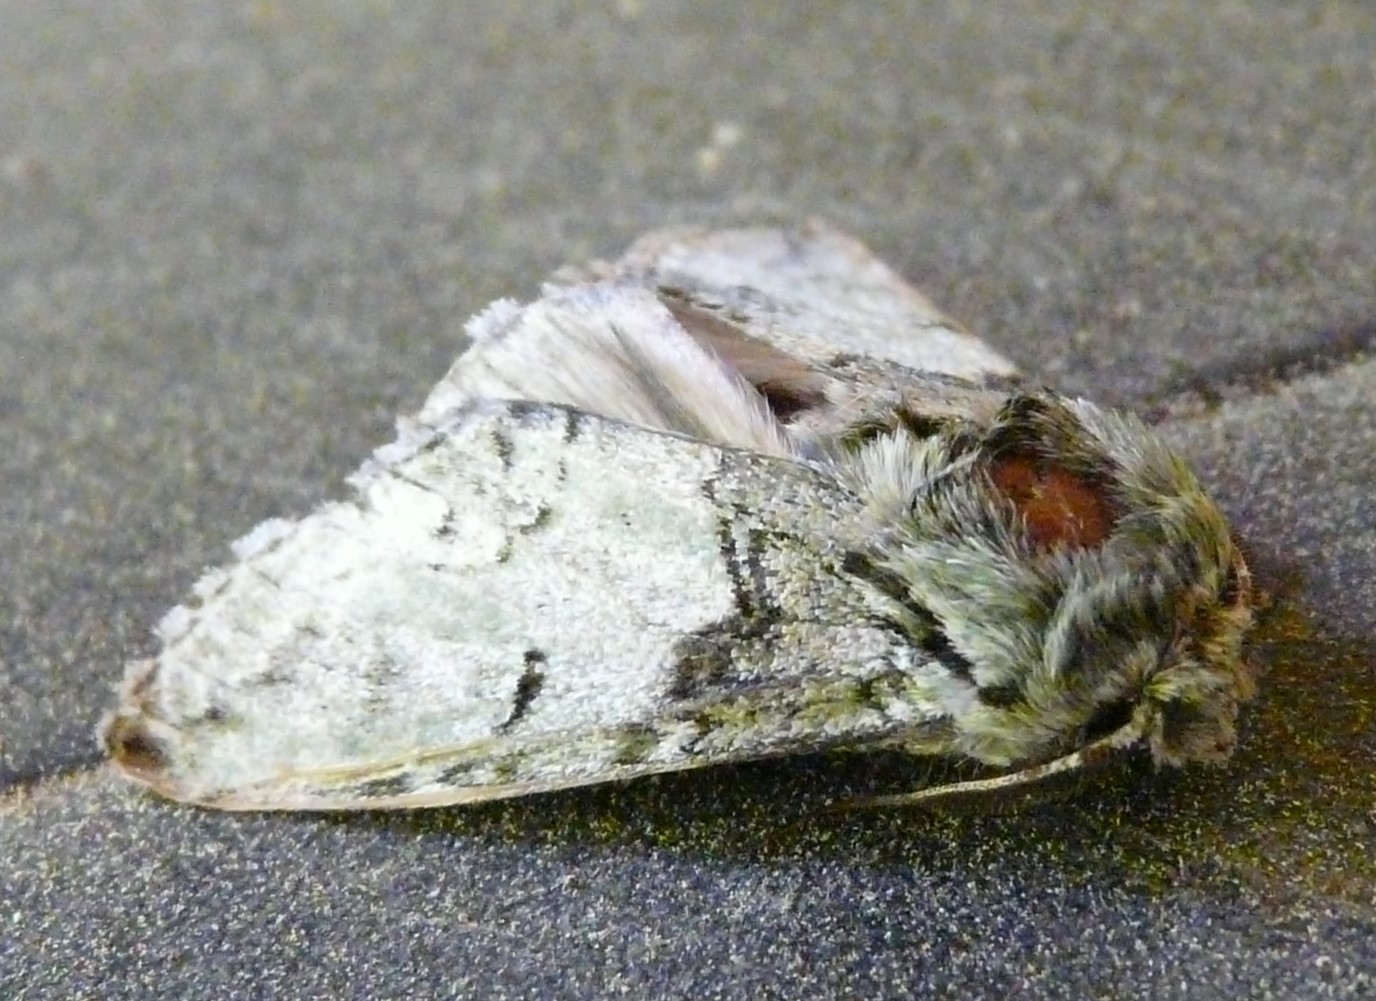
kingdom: Animalia
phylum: Arthropoda
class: Insecta
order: Lepidoptera
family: Notodontidae
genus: Macrurocampa
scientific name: Macrurocampa marthesia
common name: Mottled prominent
